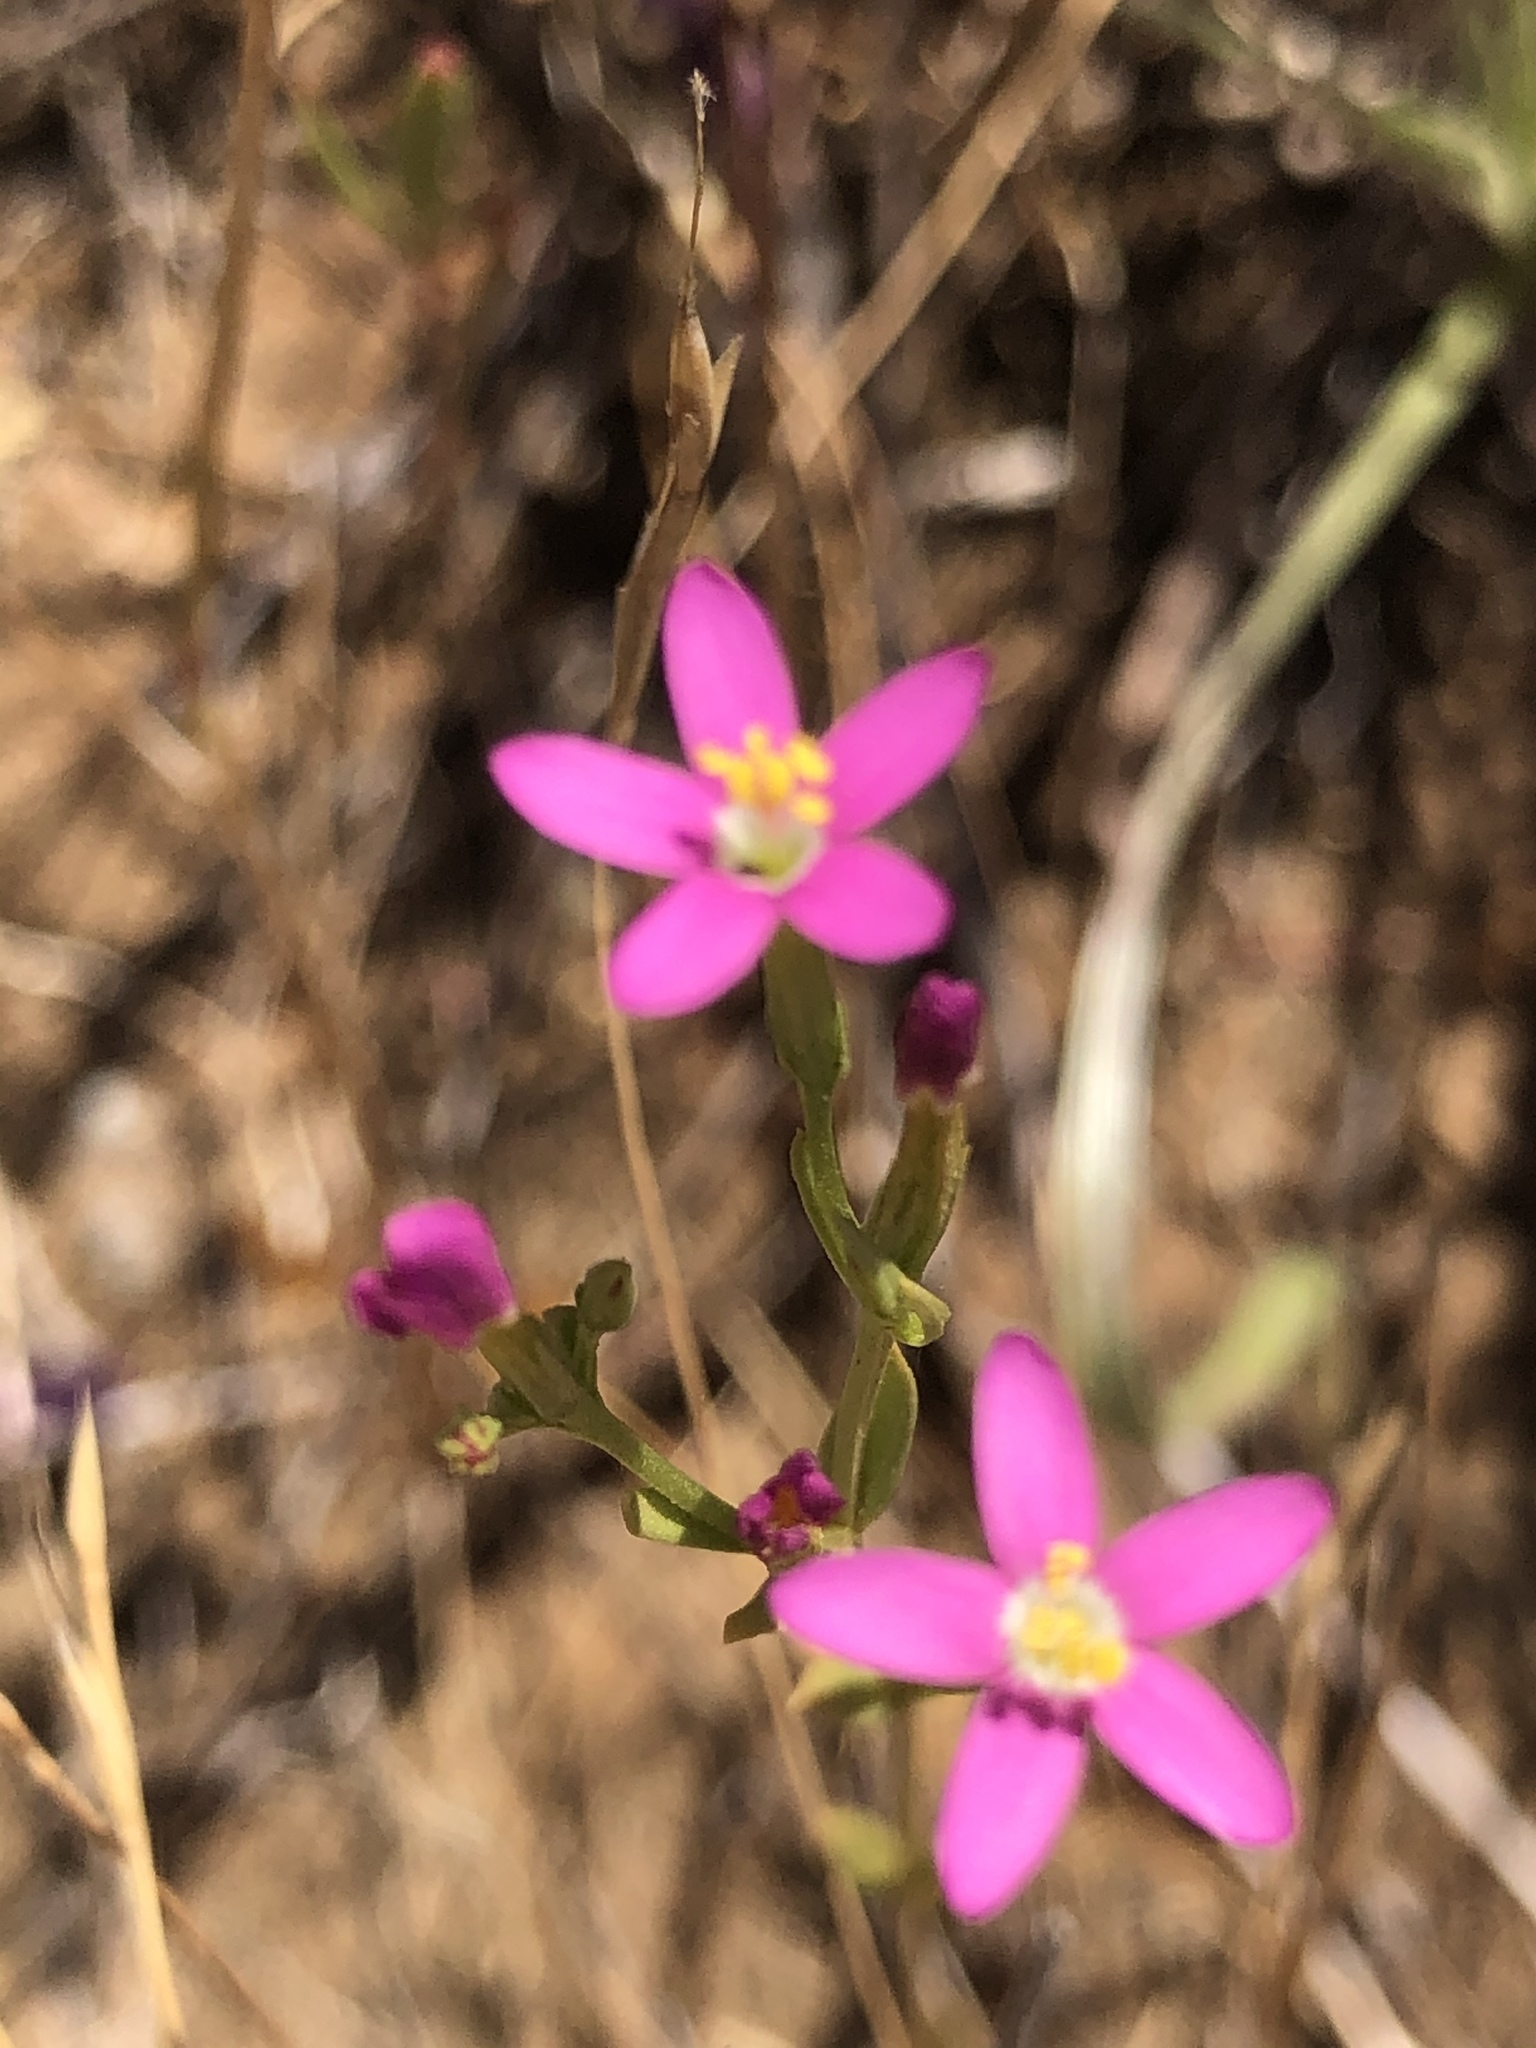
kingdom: Plantae
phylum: Tracheophyta
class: Magnoliopsida
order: Gentianales
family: Gentianaceae
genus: Zeltnera
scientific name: Zeltnera muhlenbergii
